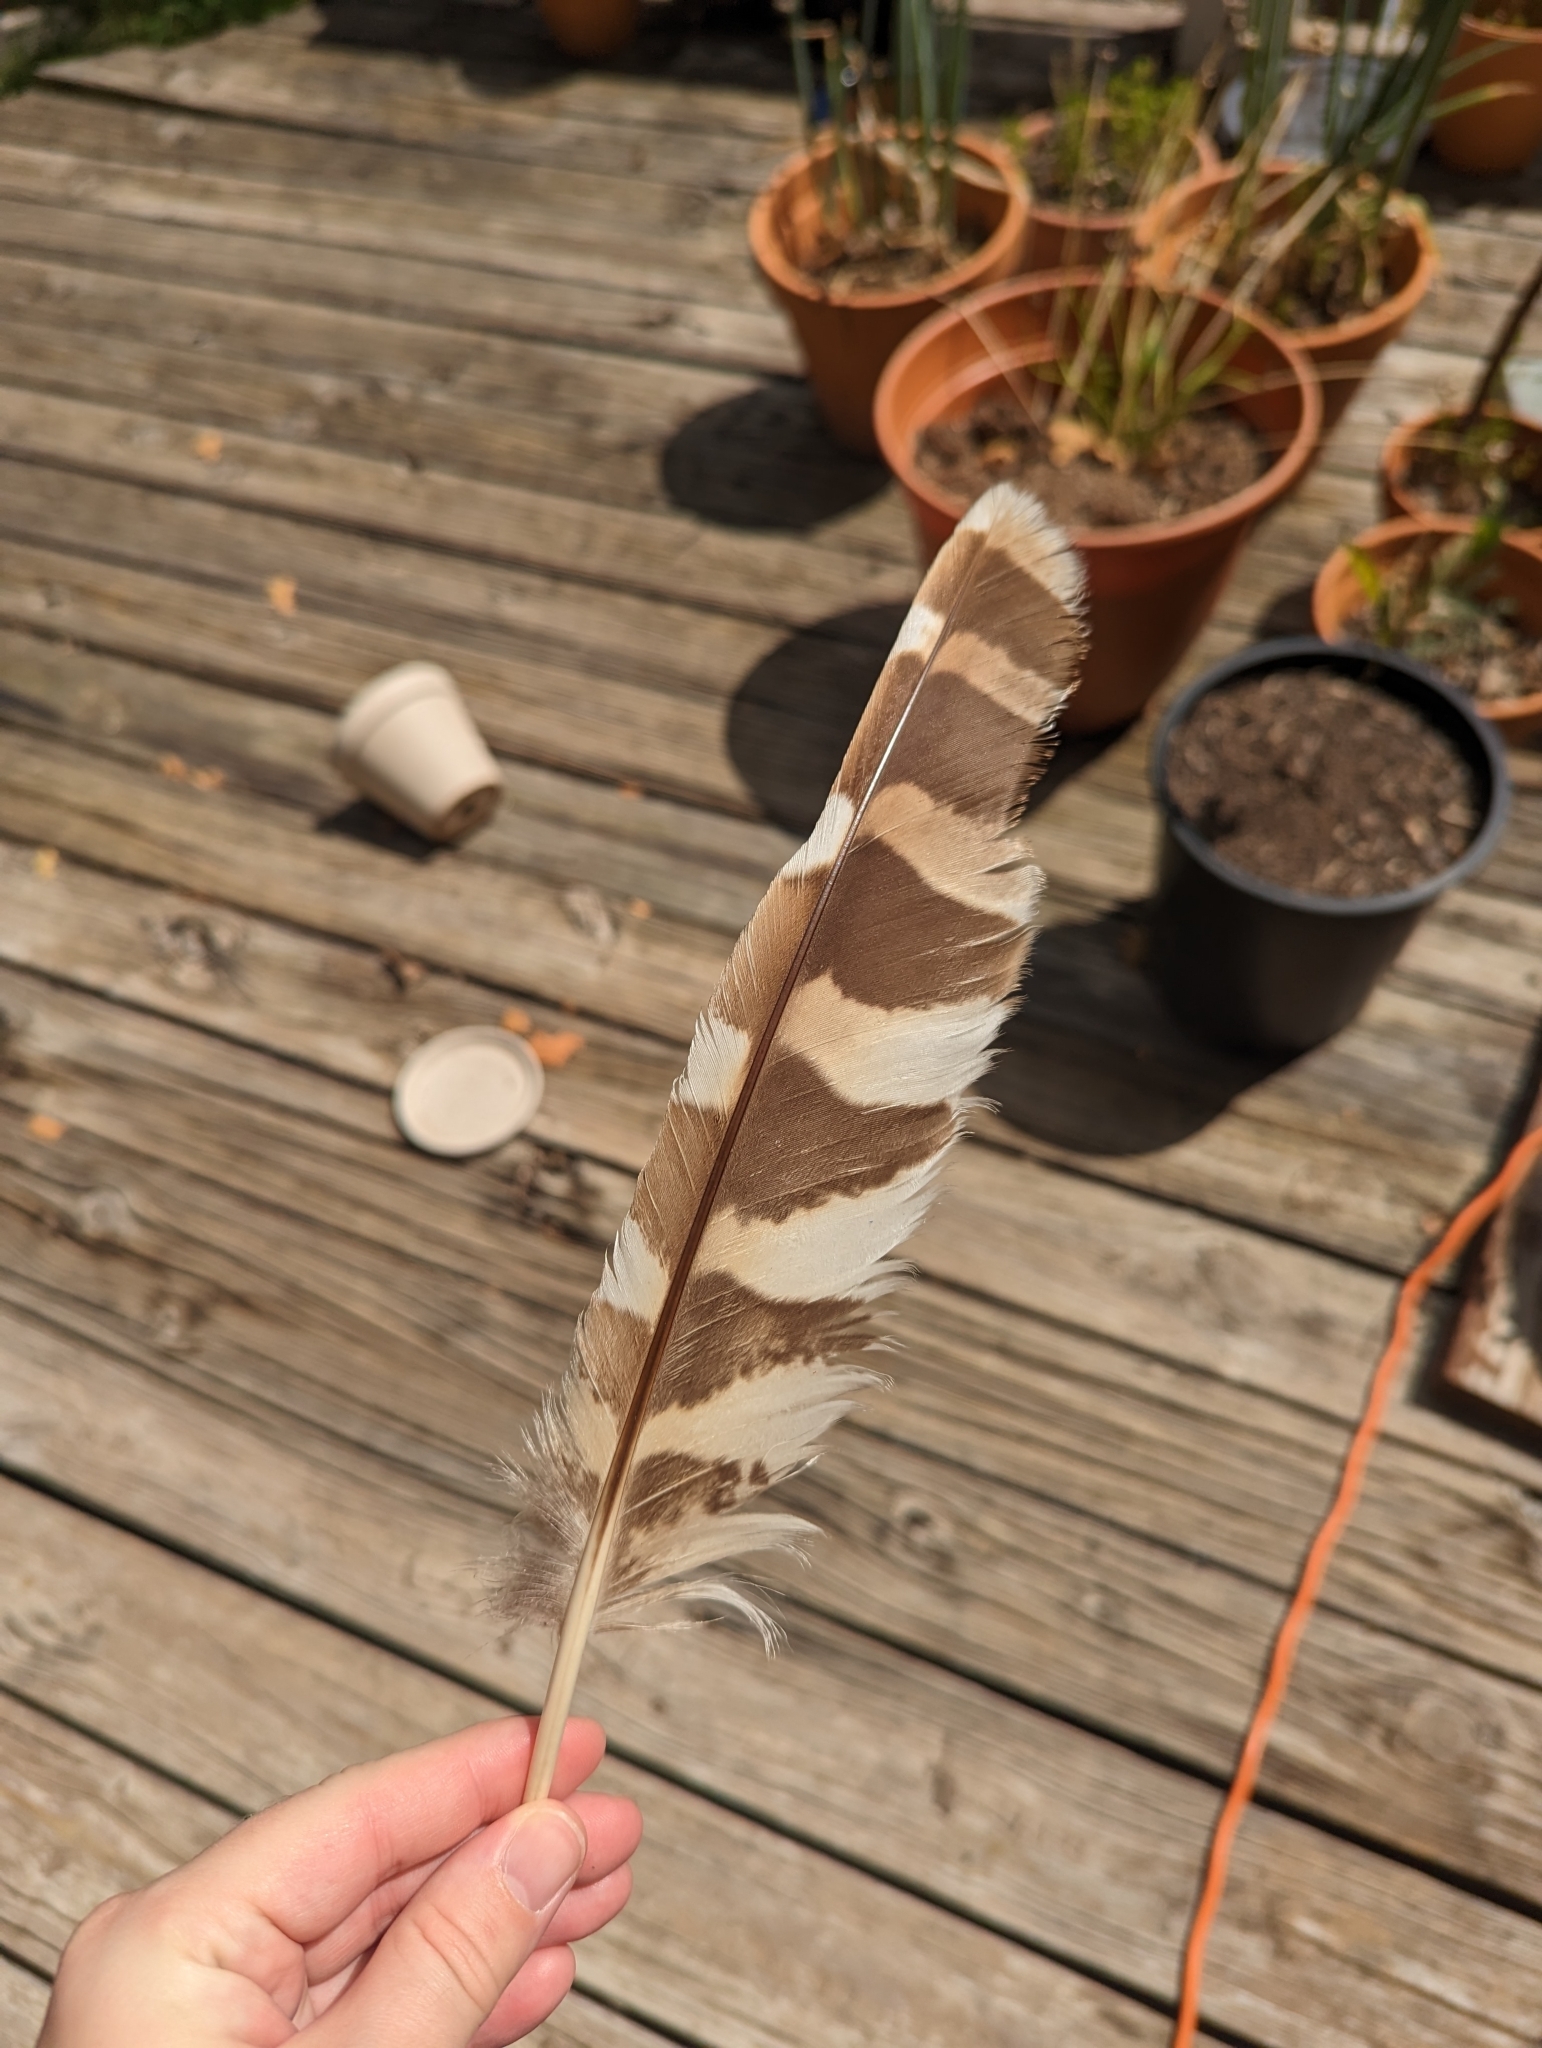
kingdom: Animalia
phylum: Chordata
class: Aves
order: Strigiformes
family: Strigidae
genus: Strix
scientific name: Strix varia
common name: Barred owl
